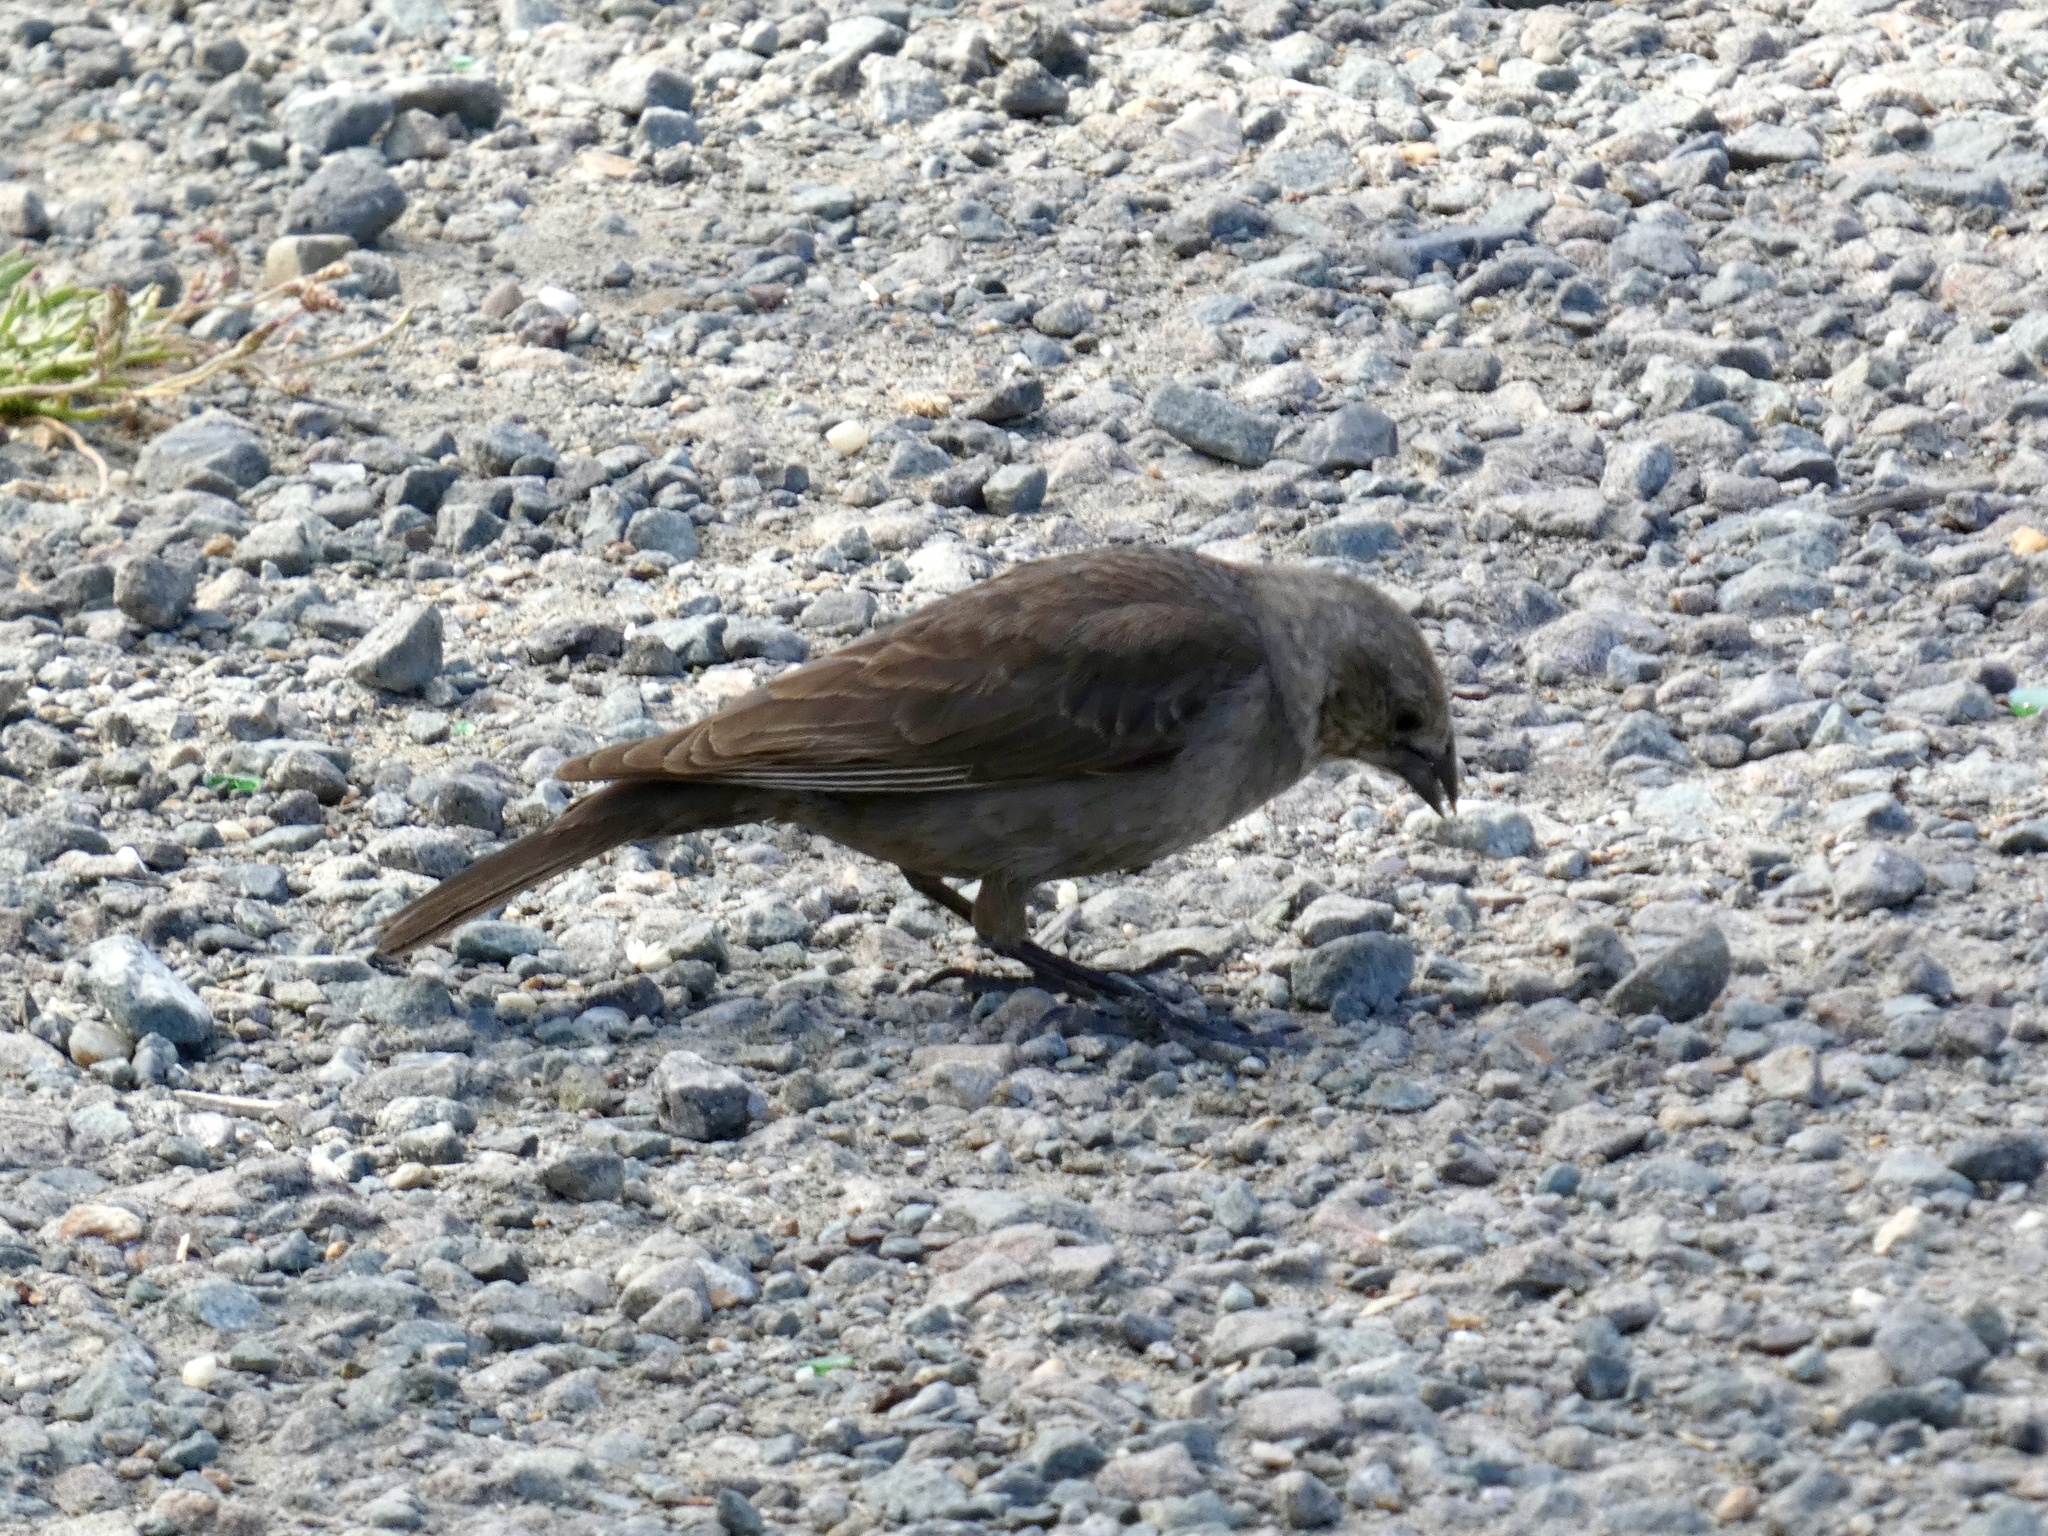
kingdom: Animalia
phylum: Chordata
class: Aves
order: Passeriformes
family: Icteridae
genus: Molothrus
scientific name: Molothrus ater
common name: Brown-headed cowbird
